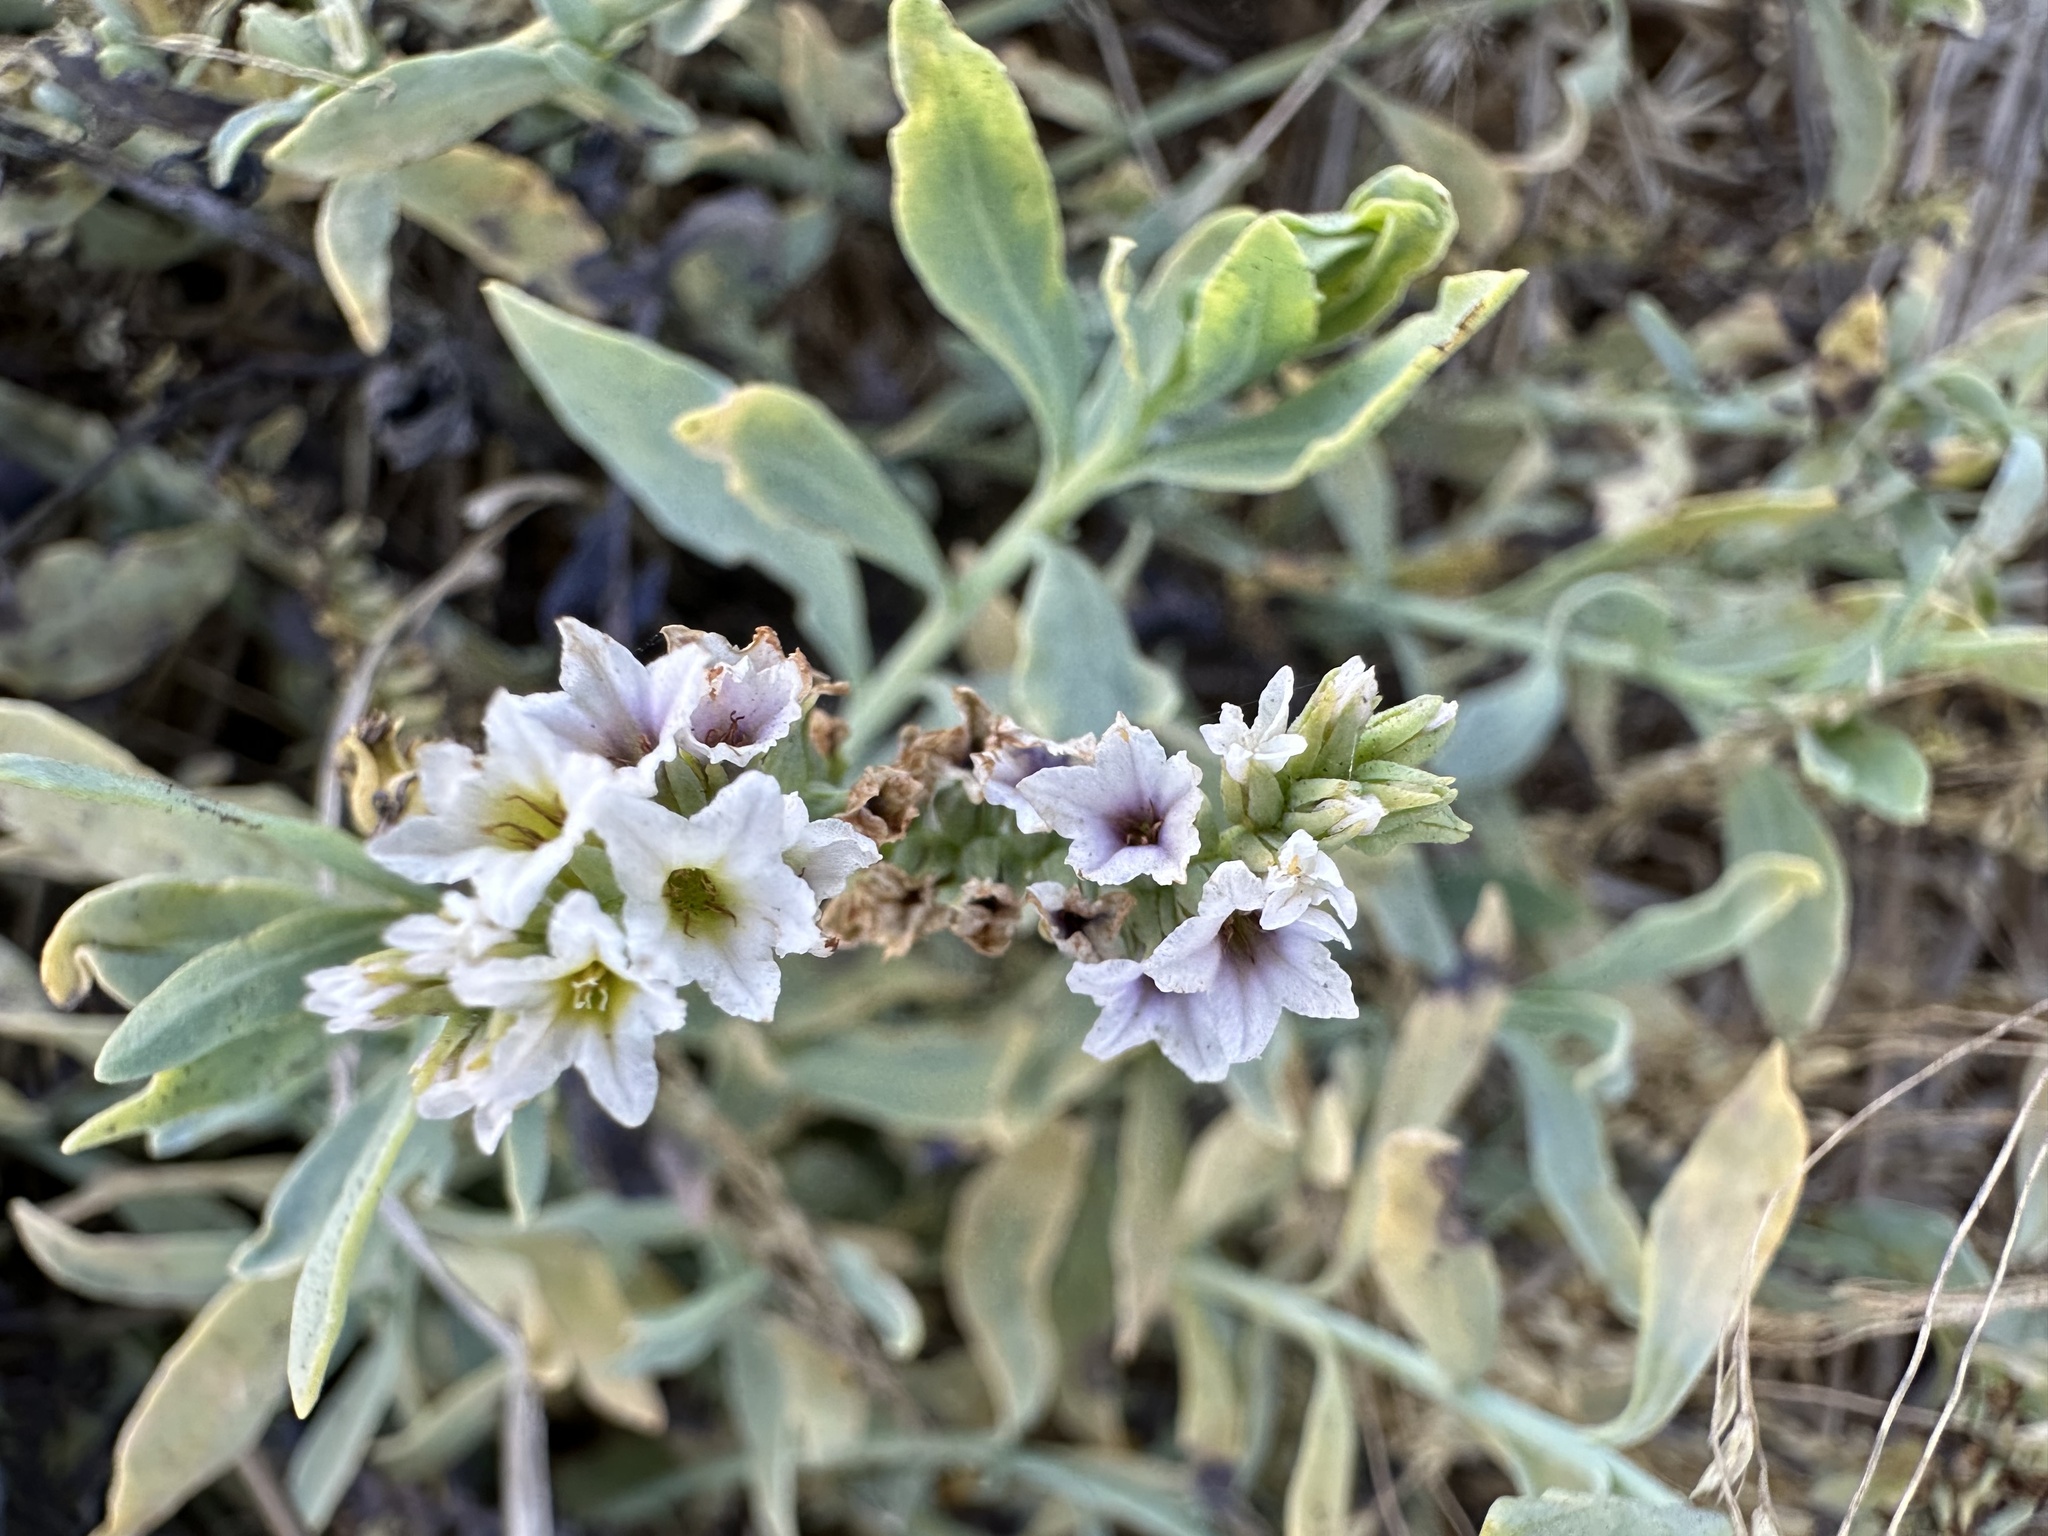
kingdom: Plantae
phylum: Tracheophyta
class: Magnoliopsida
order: Boraginales
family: Heliotropiaceae
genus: Heliotropium
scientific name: Heliotropium curassavicum
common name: Seaside heliotrope
